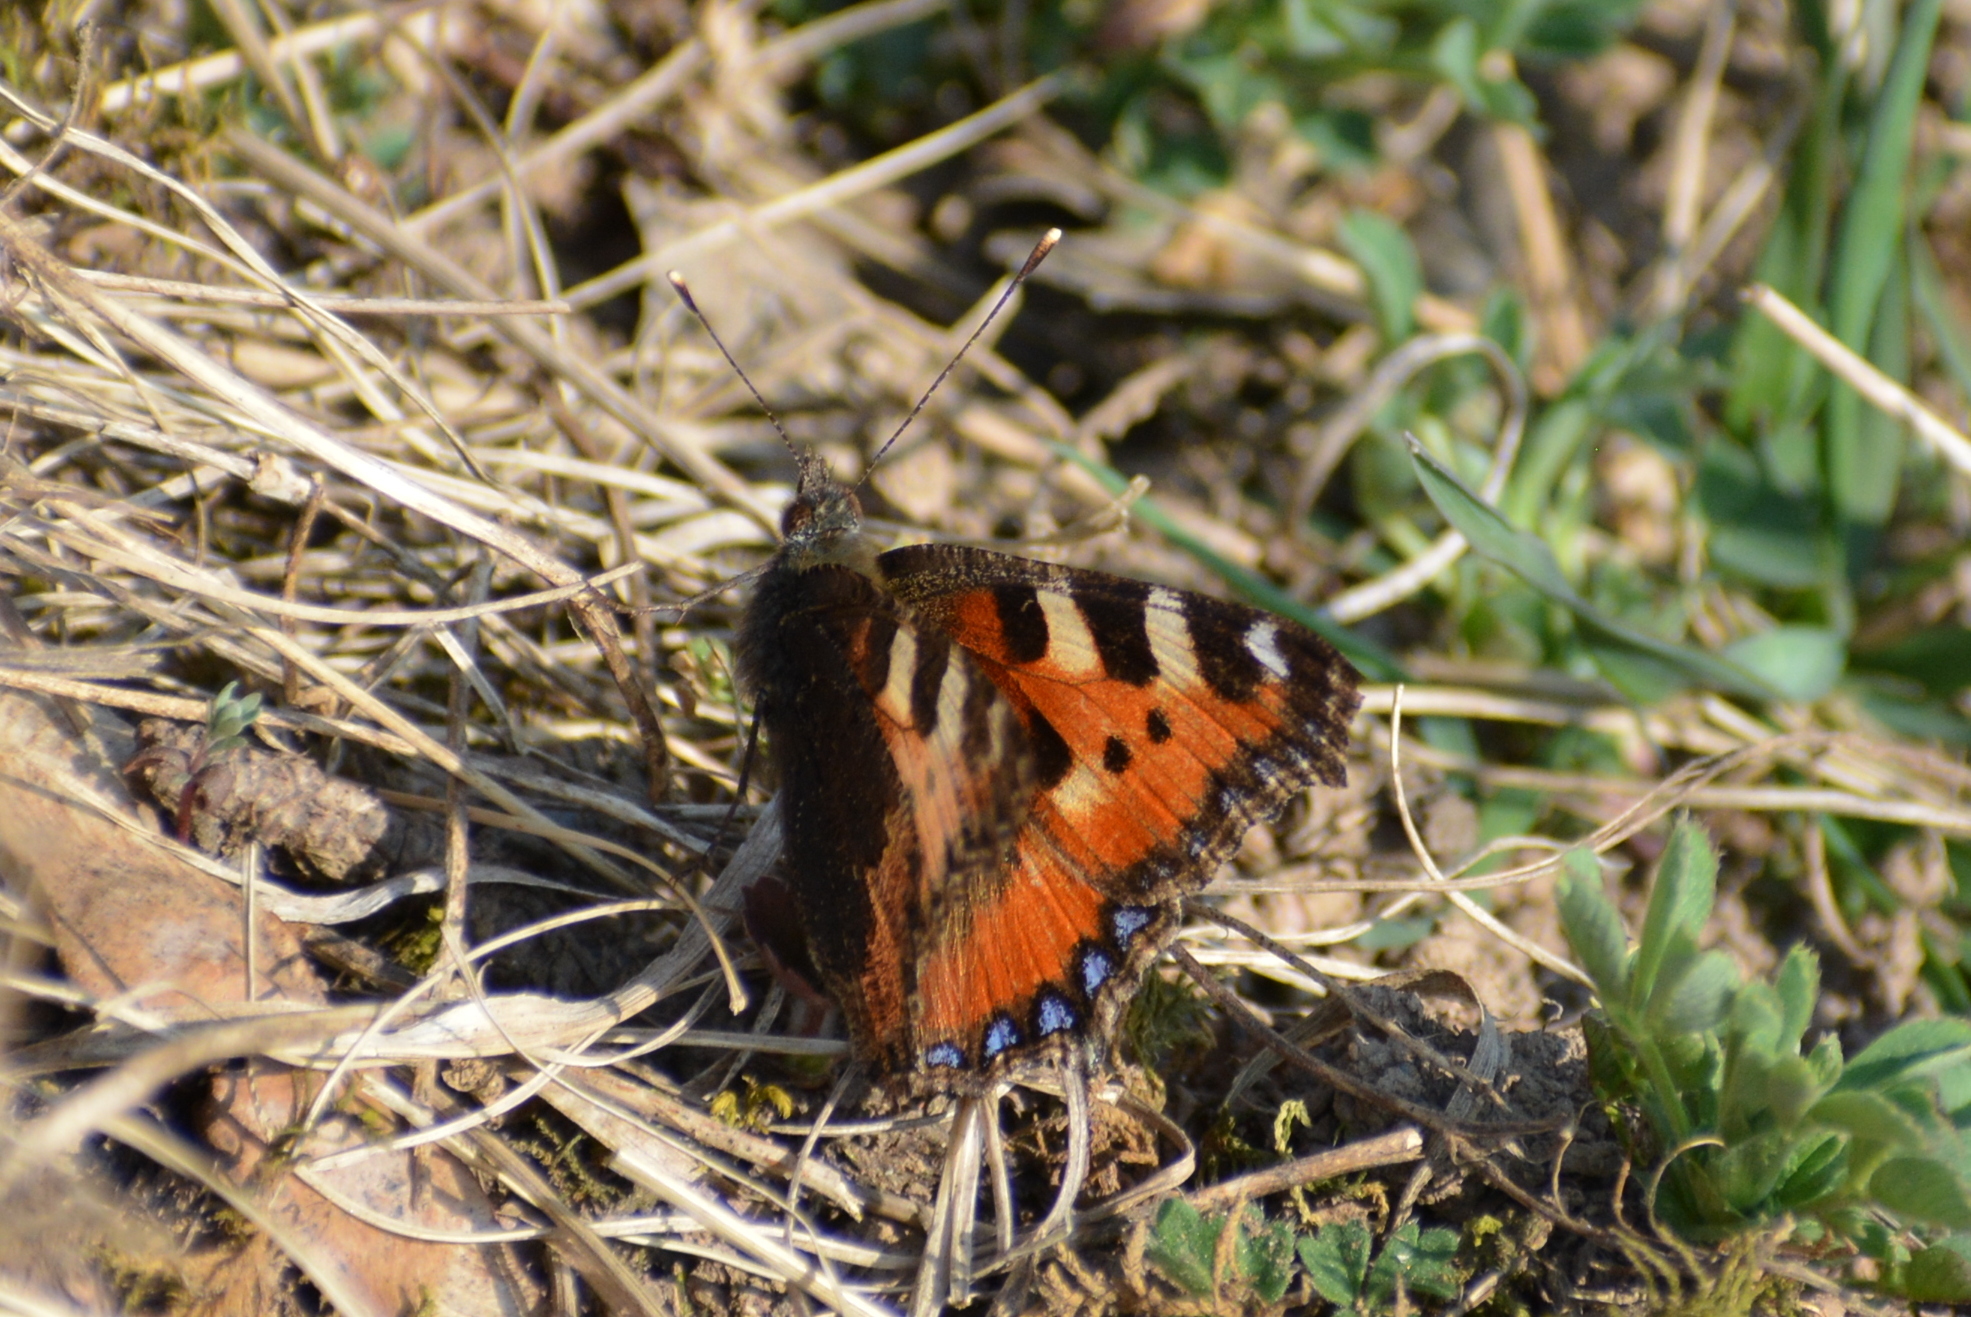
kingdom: Animalia
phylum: Arthropoda
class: Insecta
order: Lepidoptera
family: Nymphalidae
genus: Aglais
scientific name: Aglais urticae
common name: Small tortoiseshell
